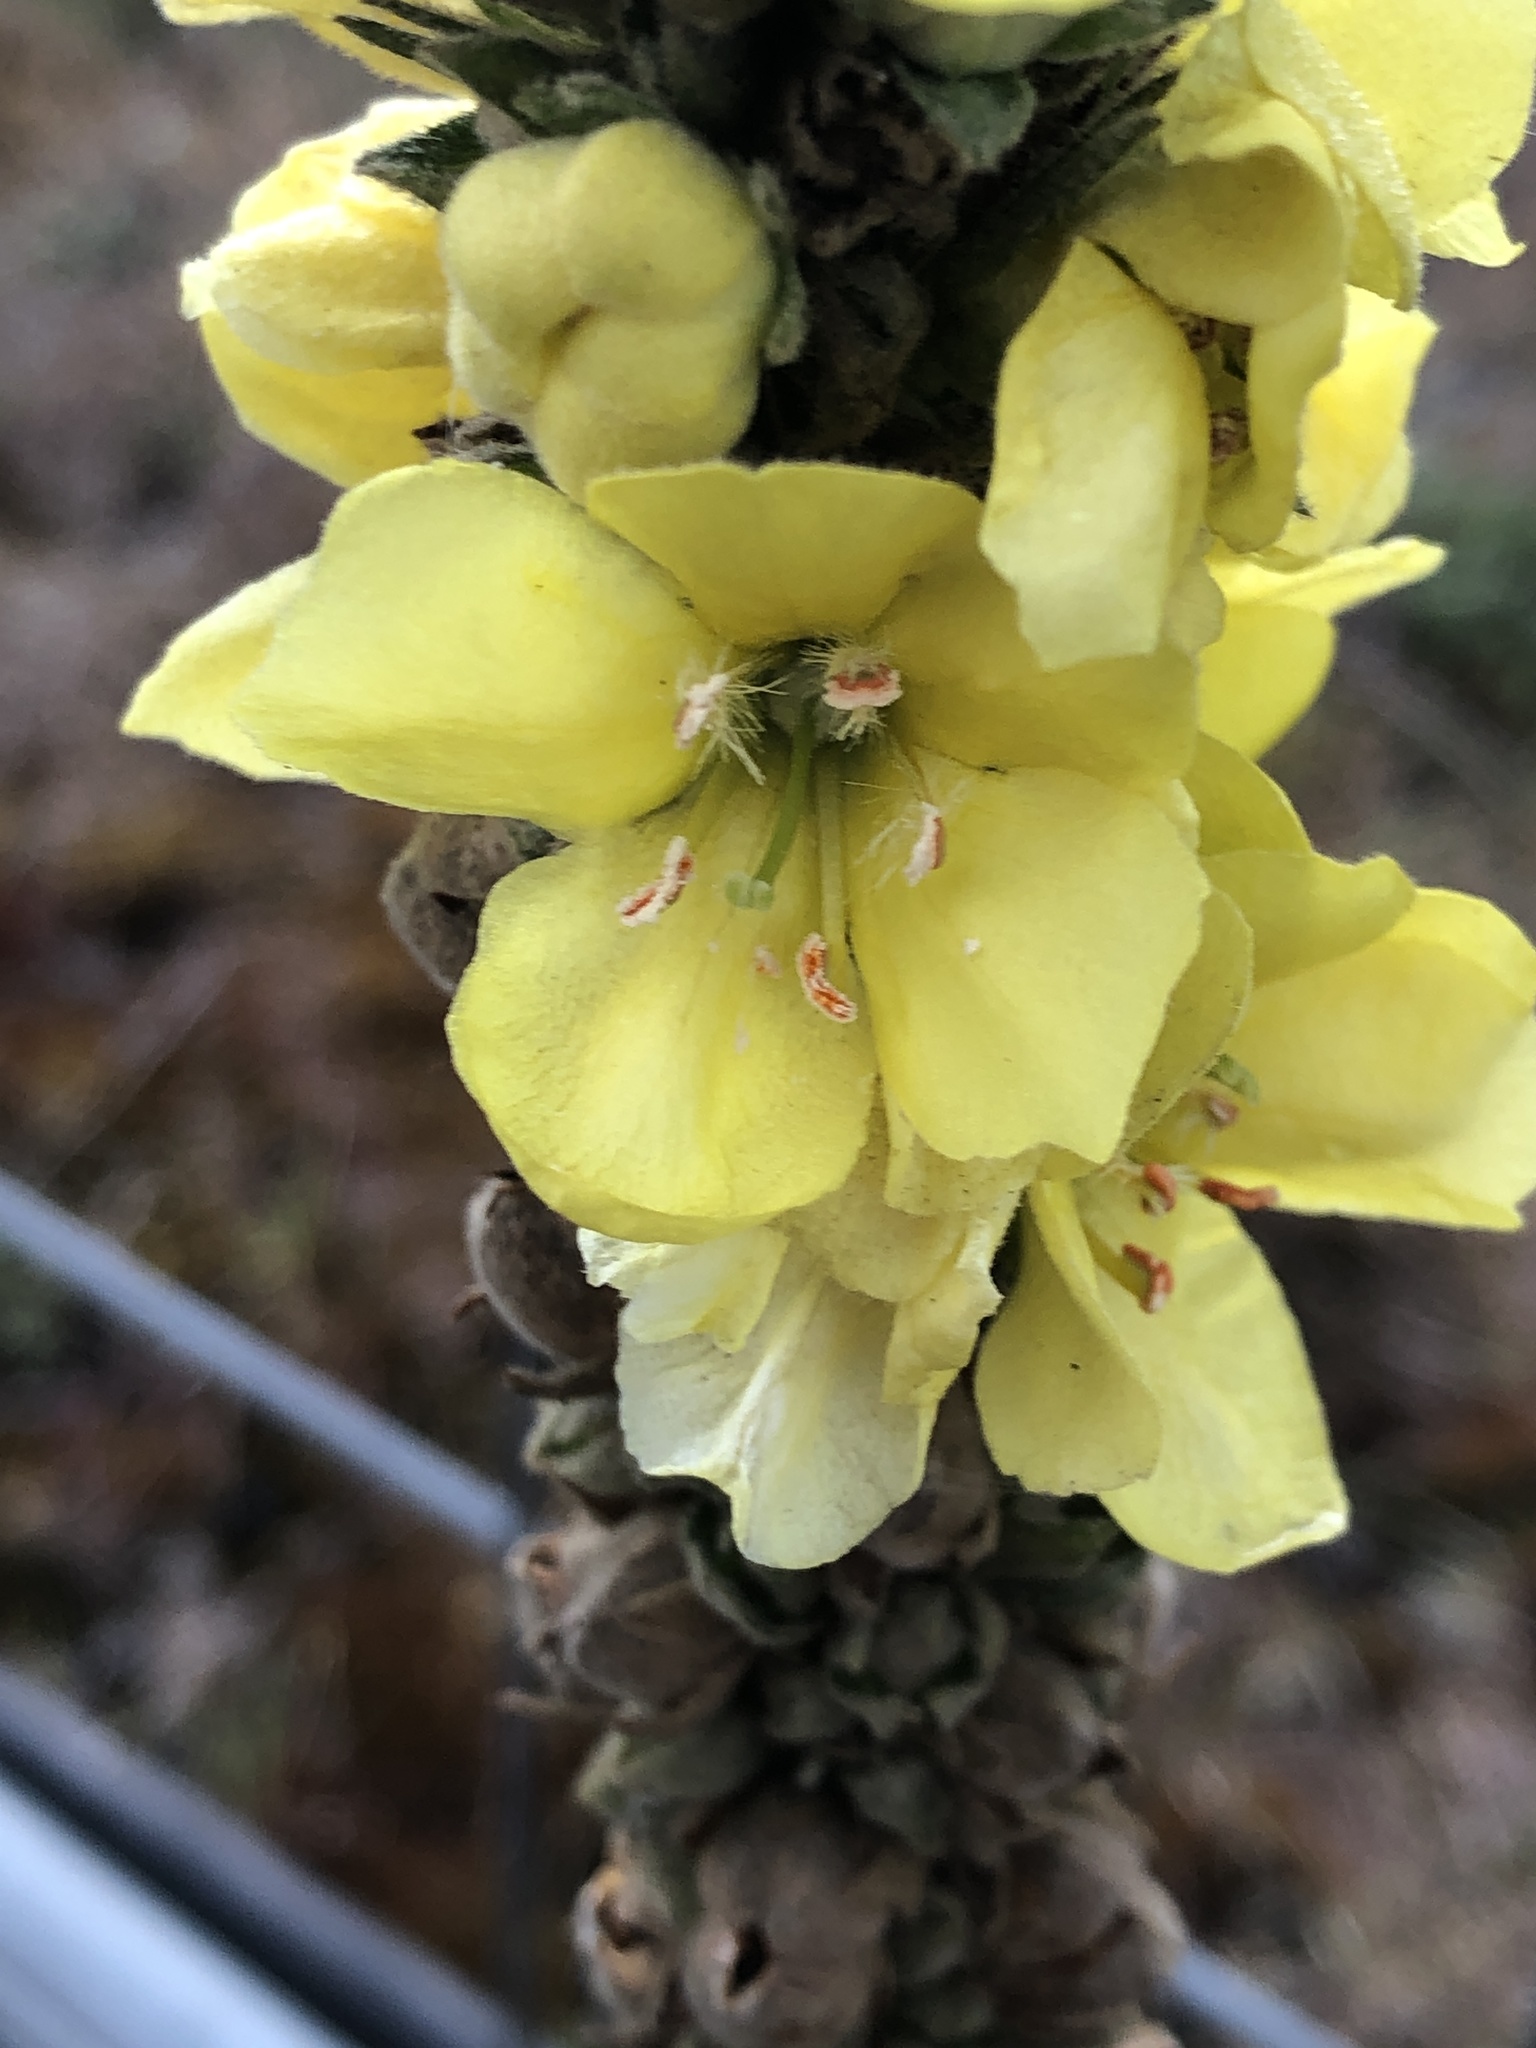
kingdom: Plantae
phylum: Tracheophyta
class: Magnoliopsida
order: Lamiales
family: Scrophulariaceae
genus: Verbascum
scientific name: Verbascum thapsus
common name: Common mullein
